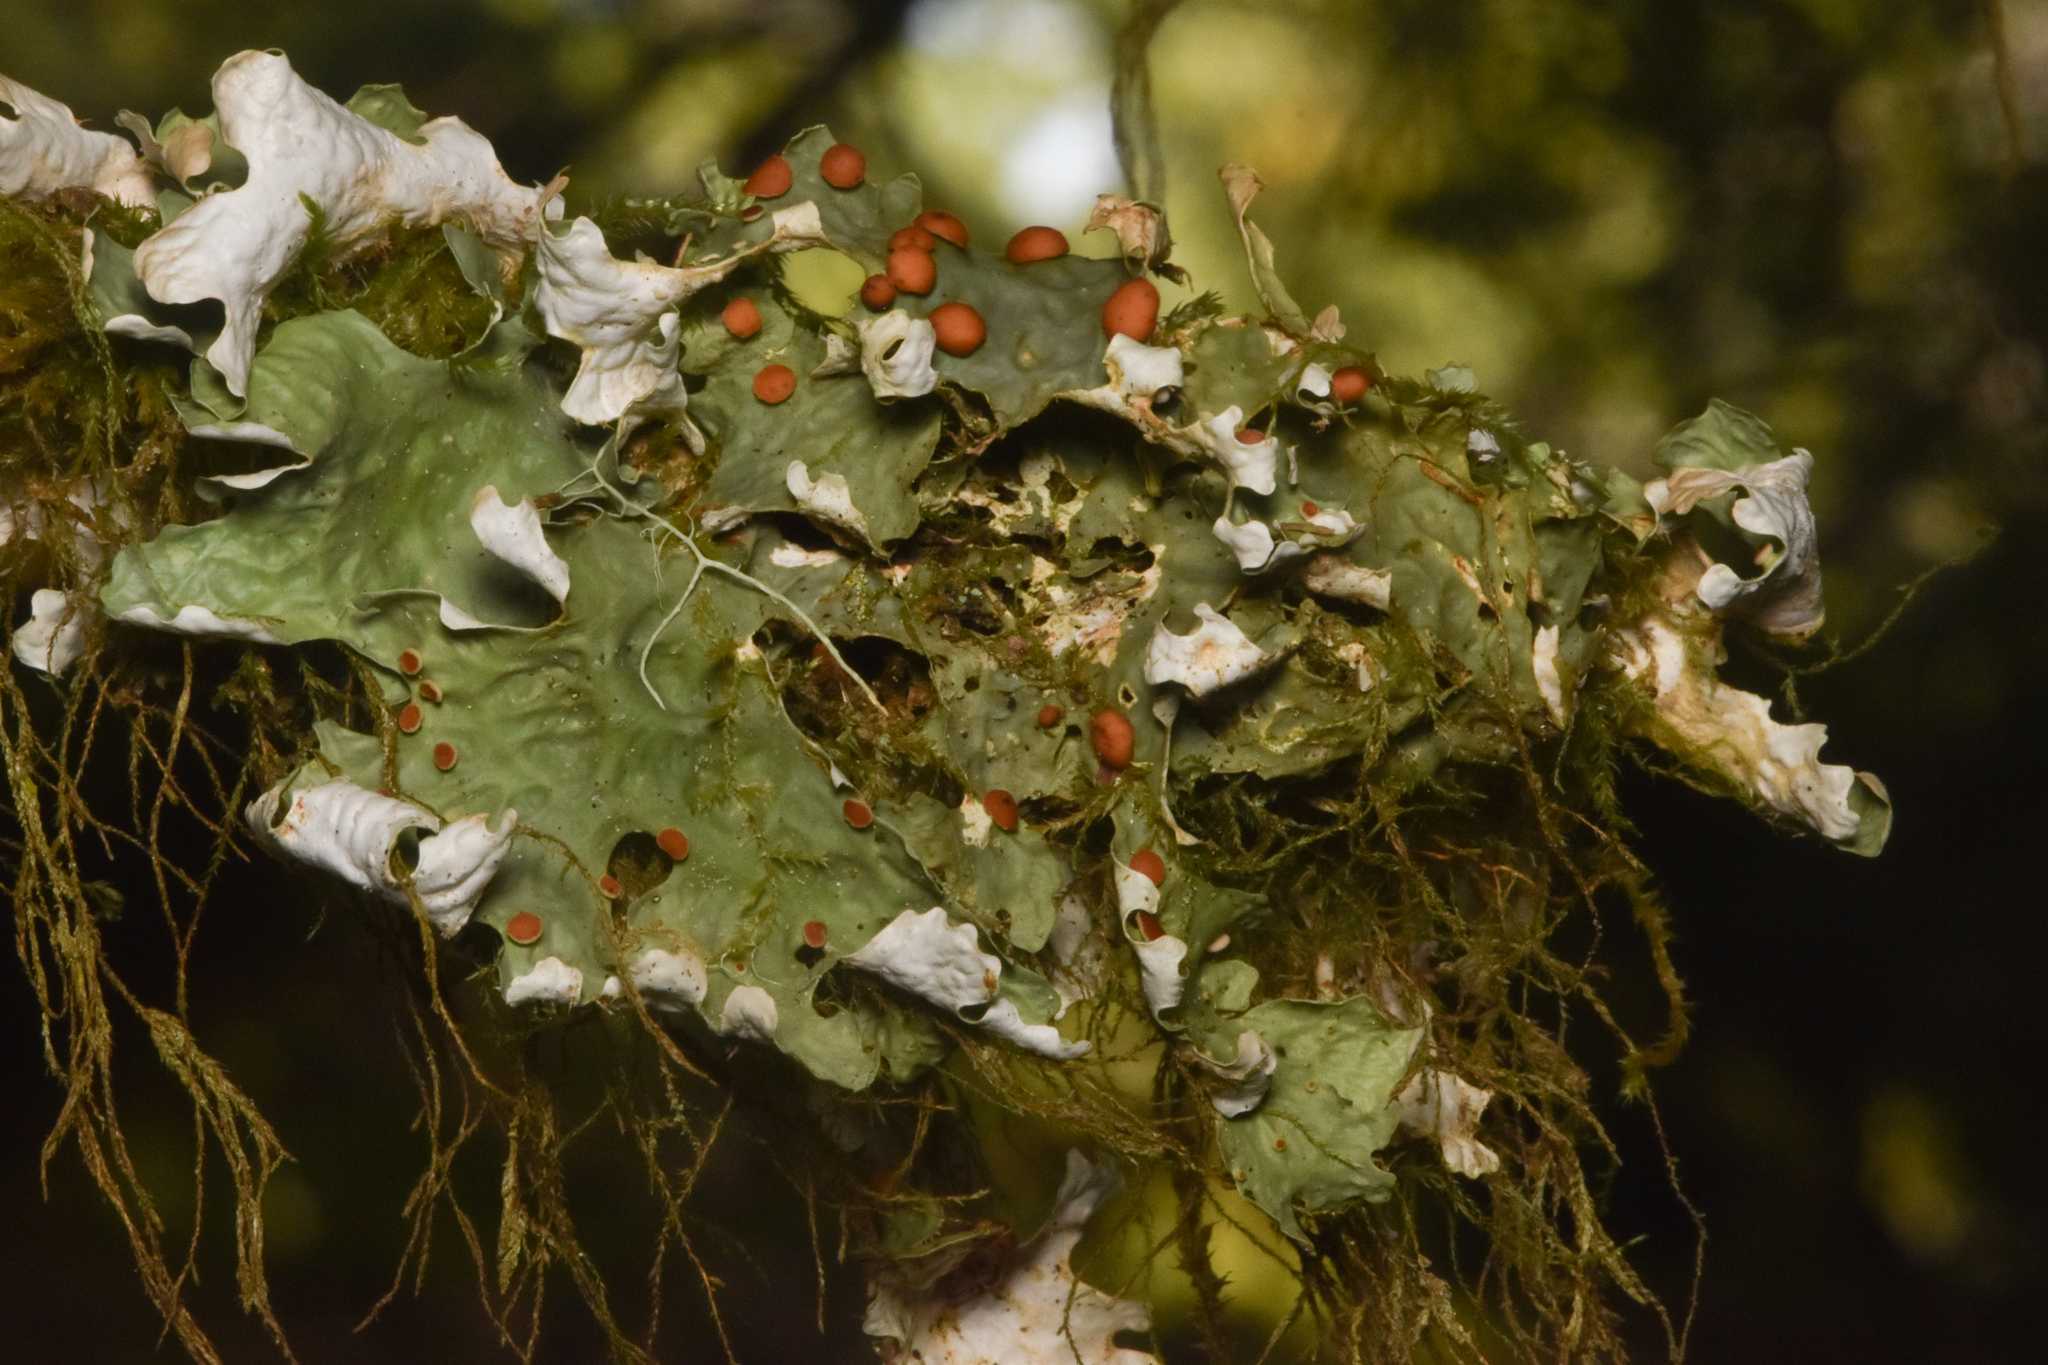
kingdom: Fungi
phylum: Ascomycota
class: Lecanoromycetes
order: Peltigerales
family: Lobariaceae
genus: Lobaria
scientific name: Lobaria linita
